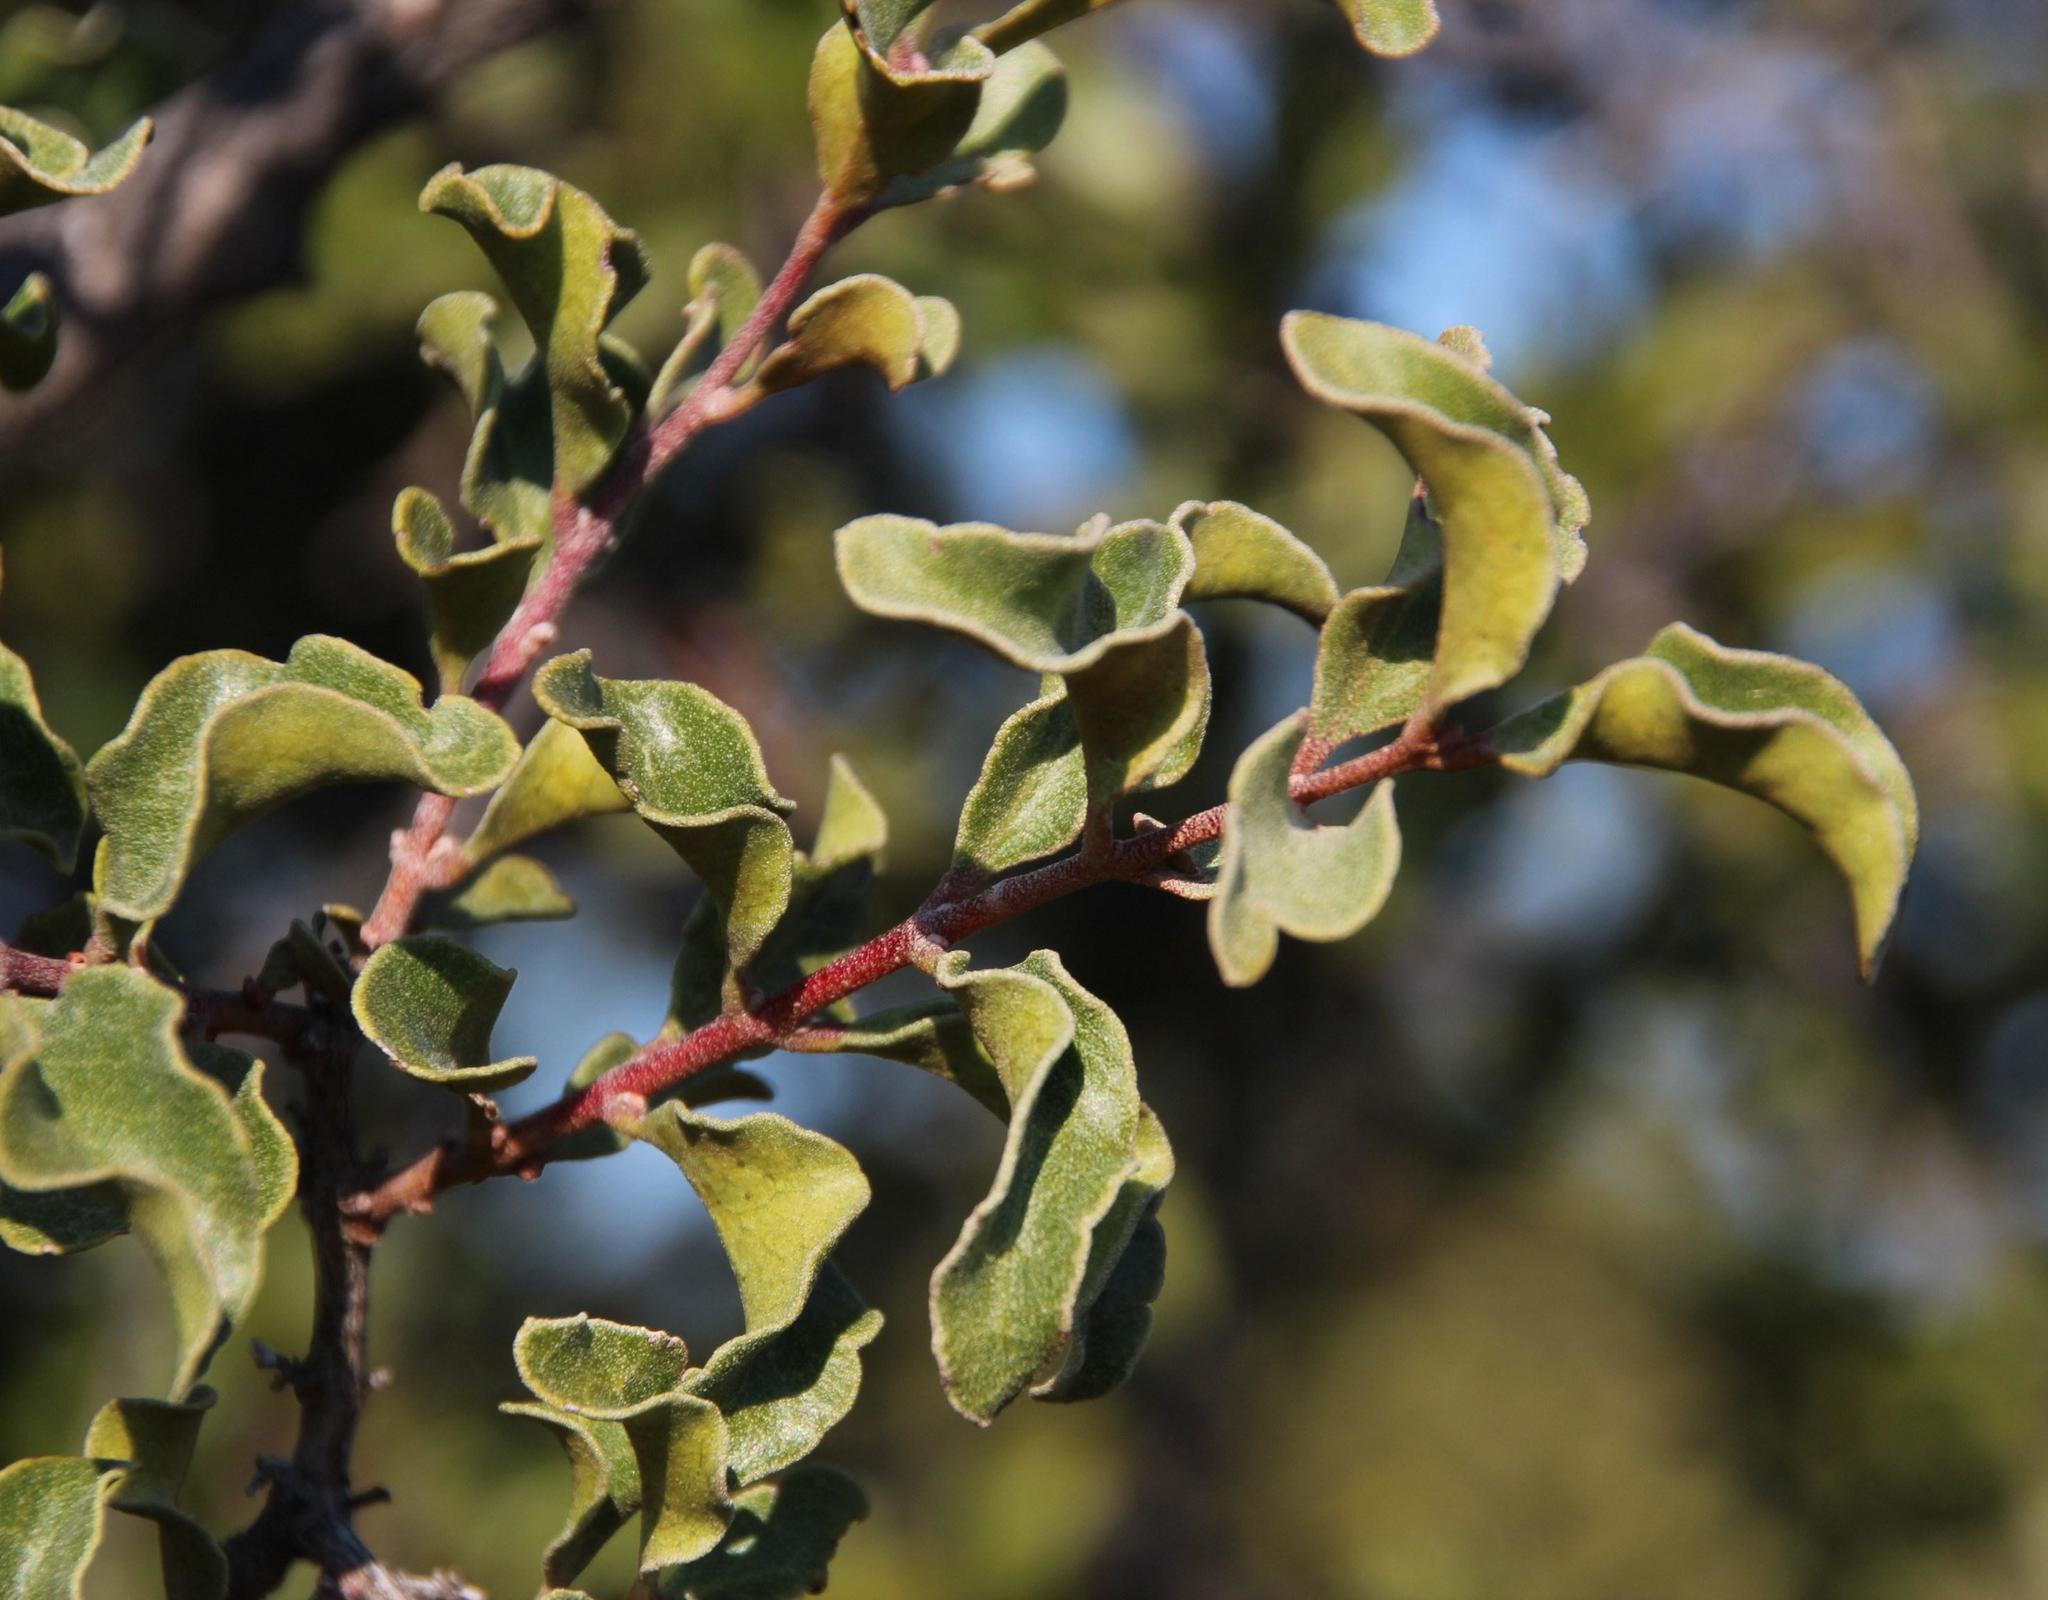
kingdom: Plantae
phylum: Tracheophyta
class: Magnoliopsida
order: Ericales
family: Ebenaceae
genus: Euclea
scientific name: Euclea undulata
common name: Small-leaved guarri
